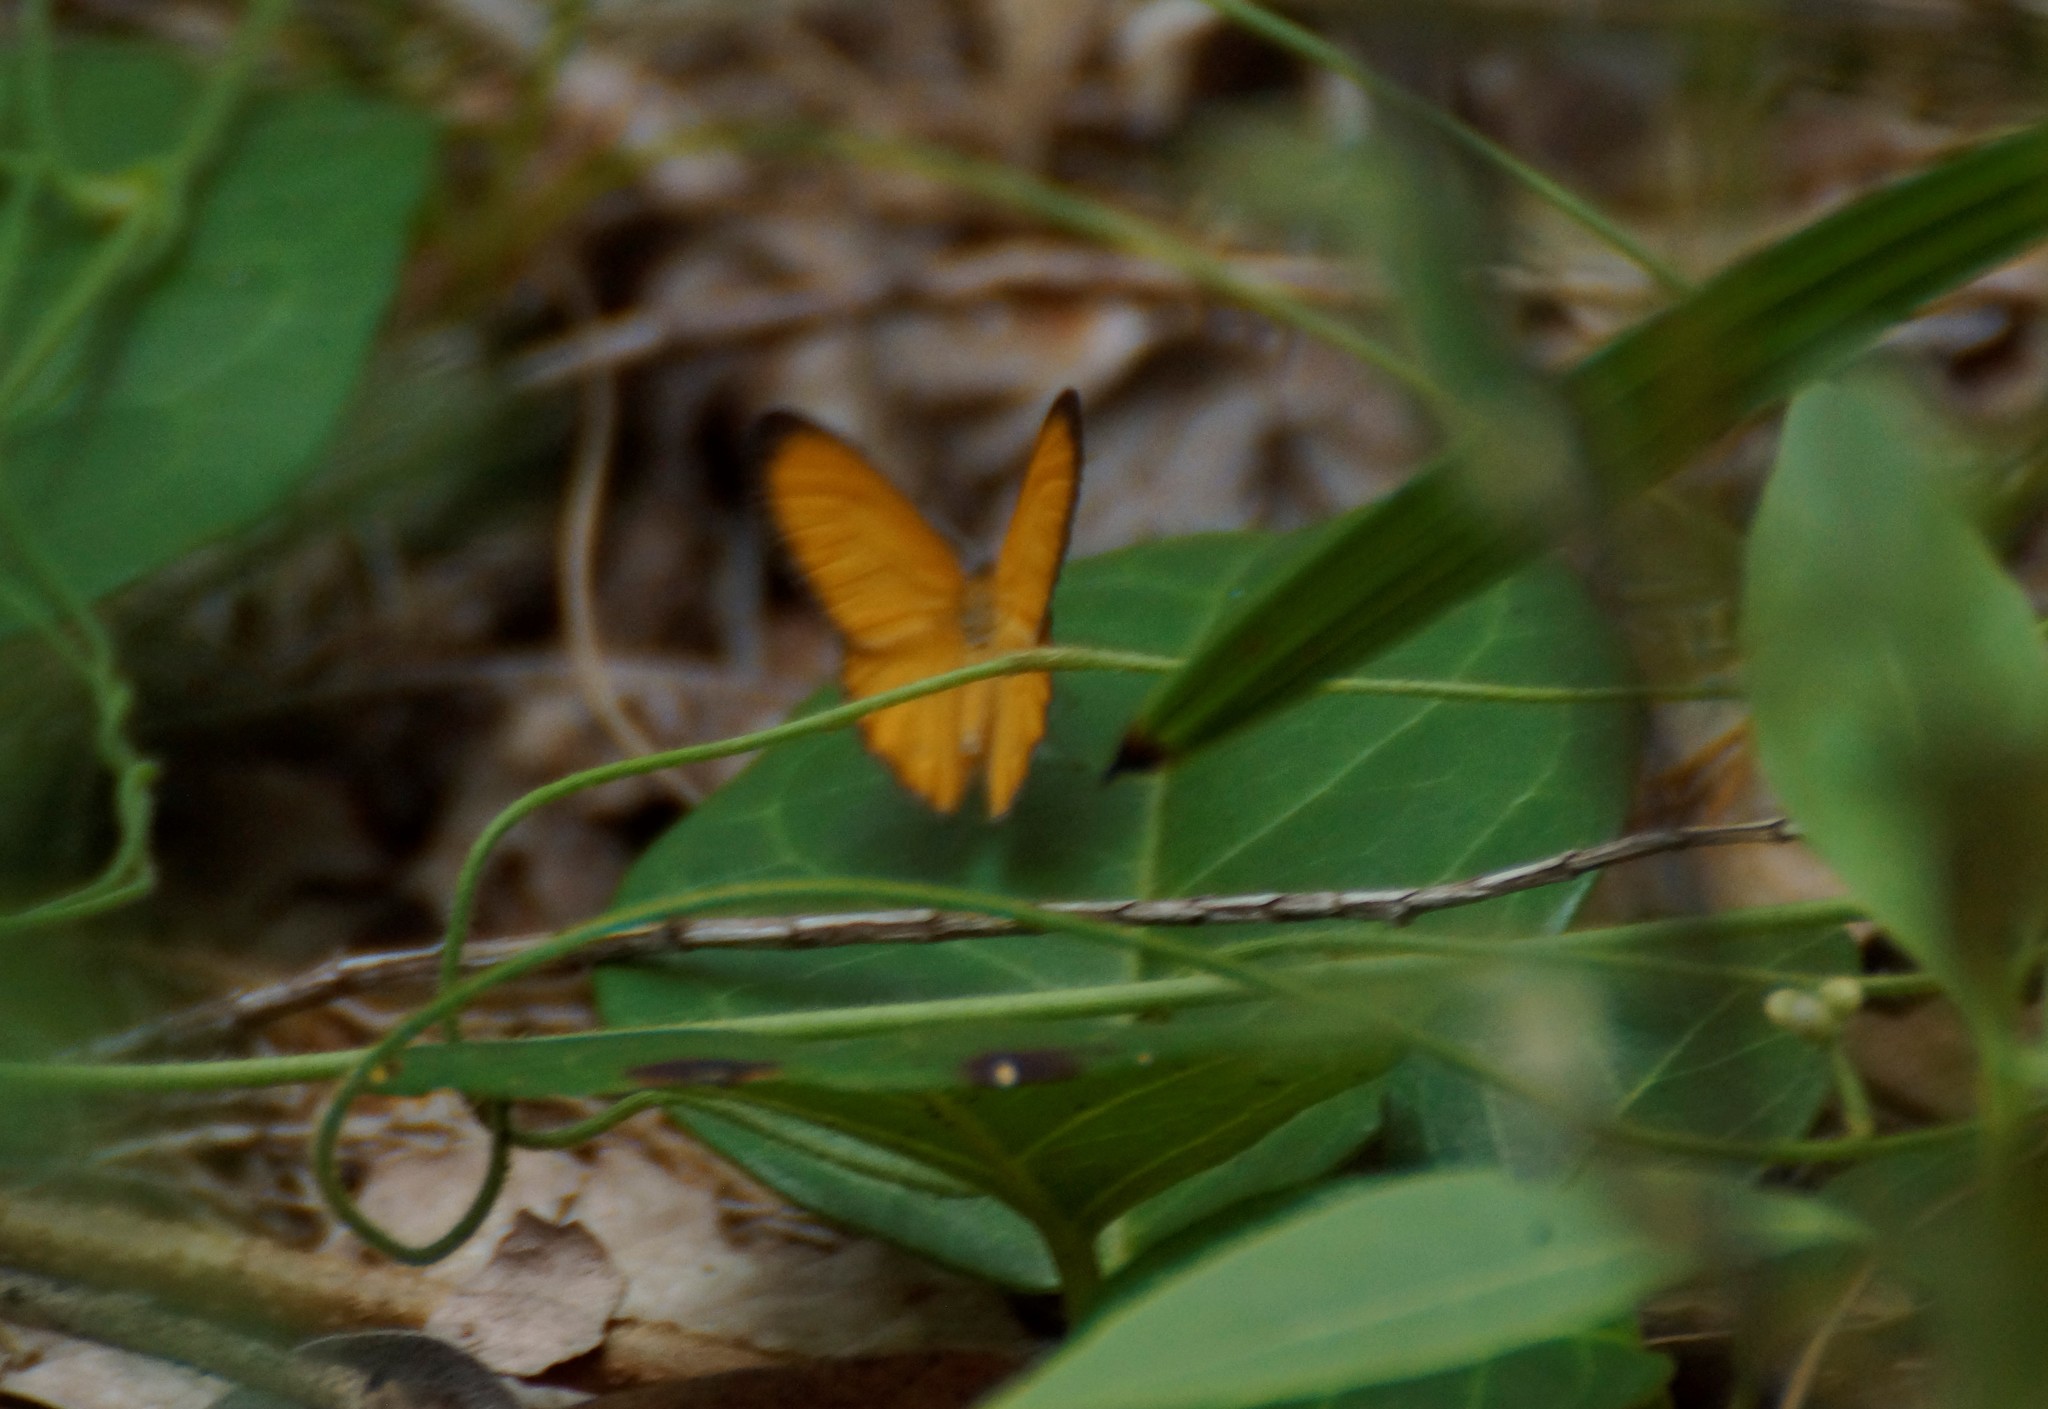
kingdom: Animalia
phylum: Arthropoda
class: Insecta
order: Lepidoptera
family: Nymphalidae
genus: Hypocysta
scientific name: Hypocysta adiante
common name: Orange ringlet
